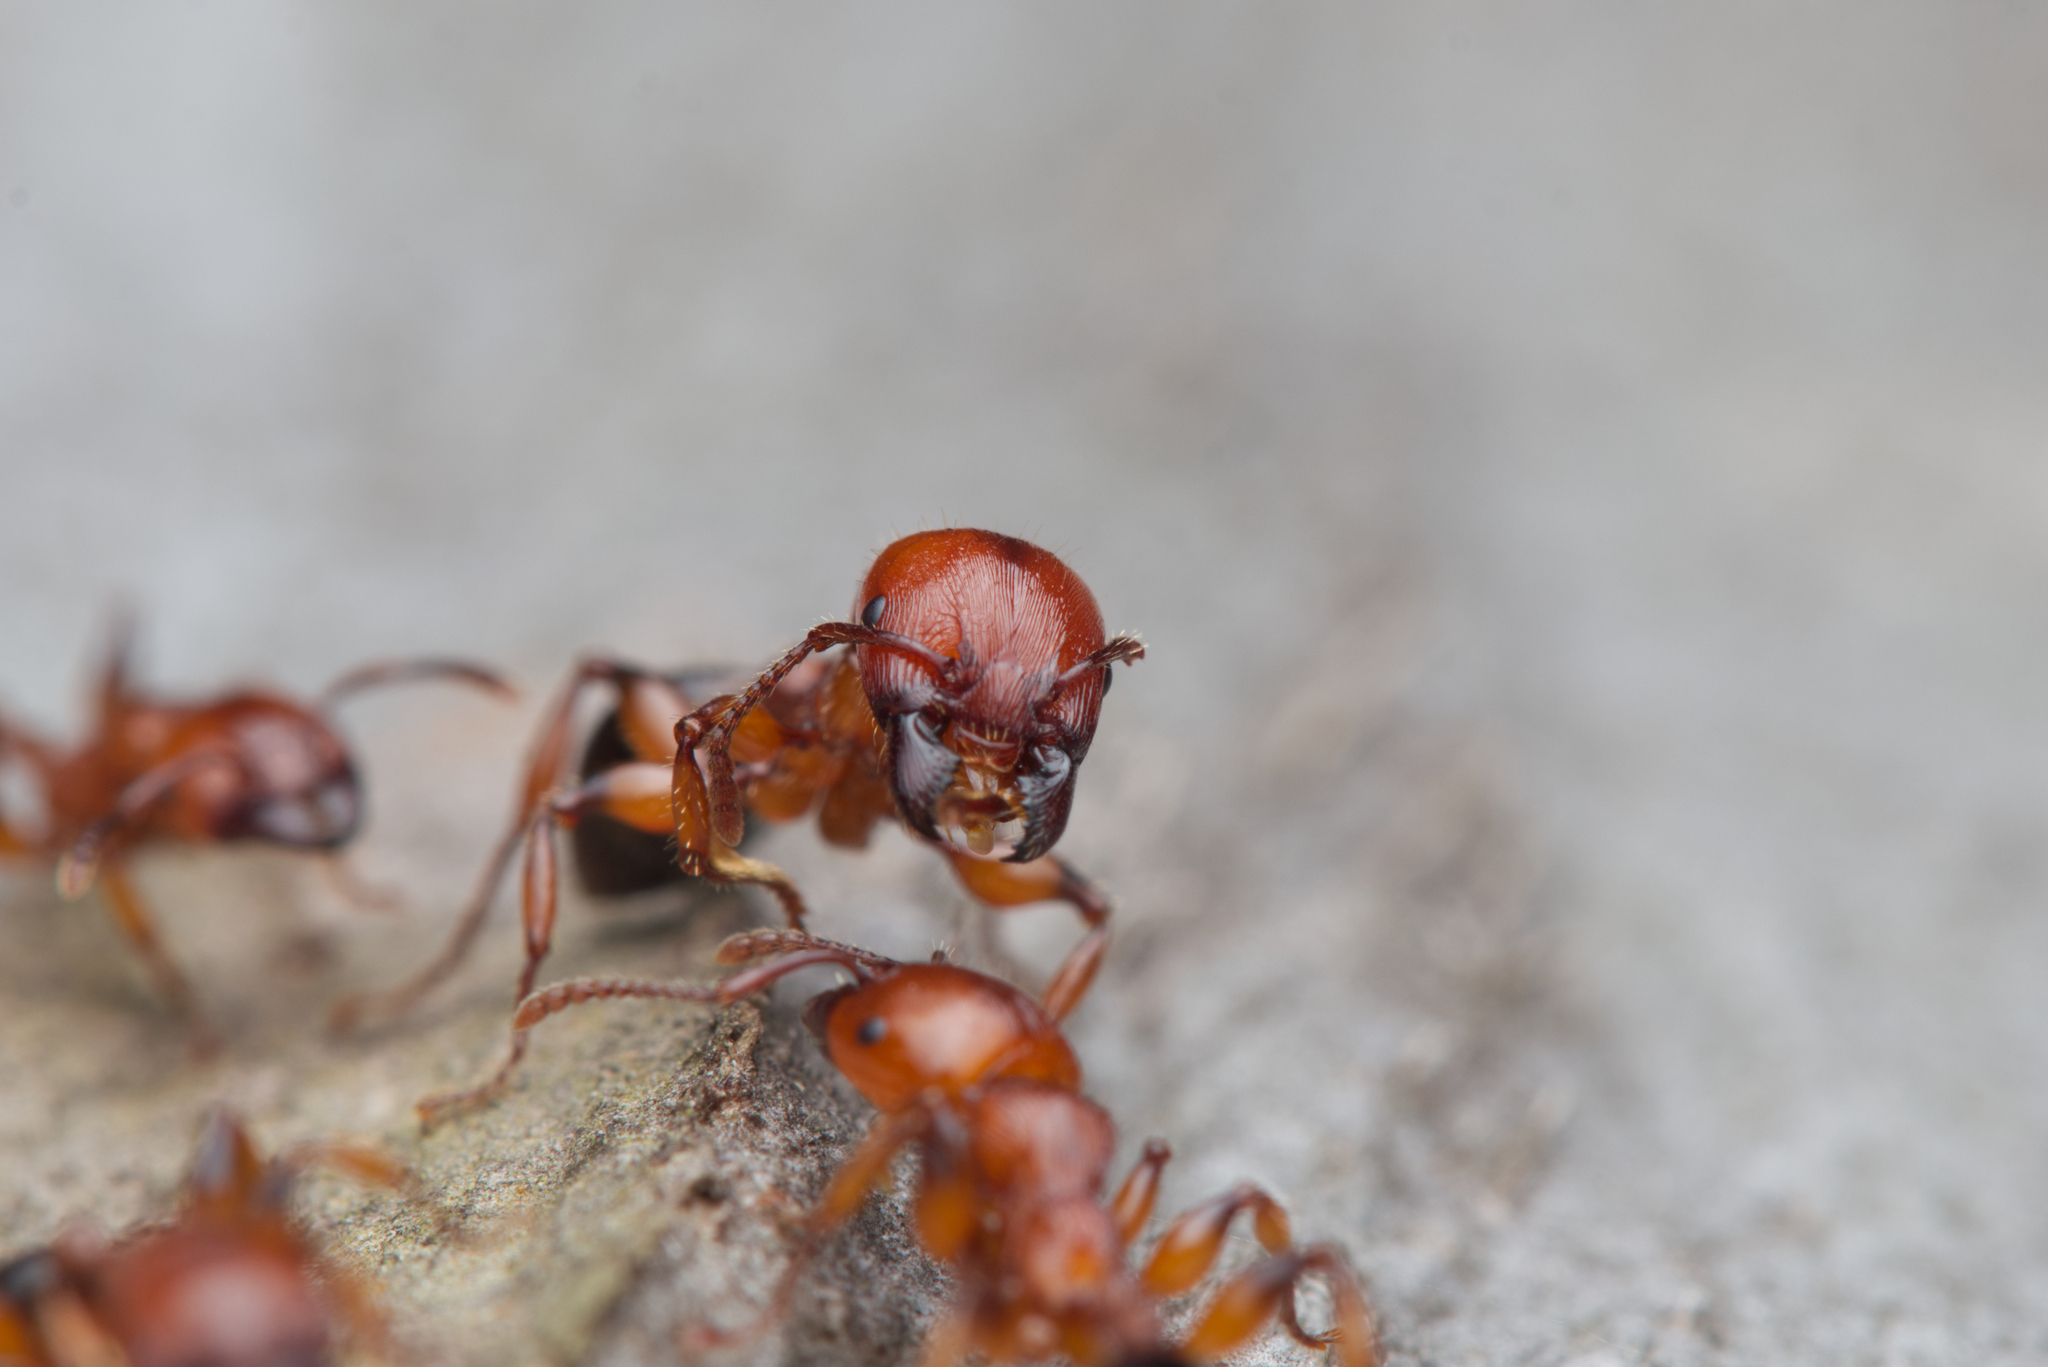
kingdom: Animalia
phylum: Arthropoda
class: Insecta
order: Hymenoptera
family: Formicidae
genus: Podomyrma
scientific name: Podomyrma gratiosa
